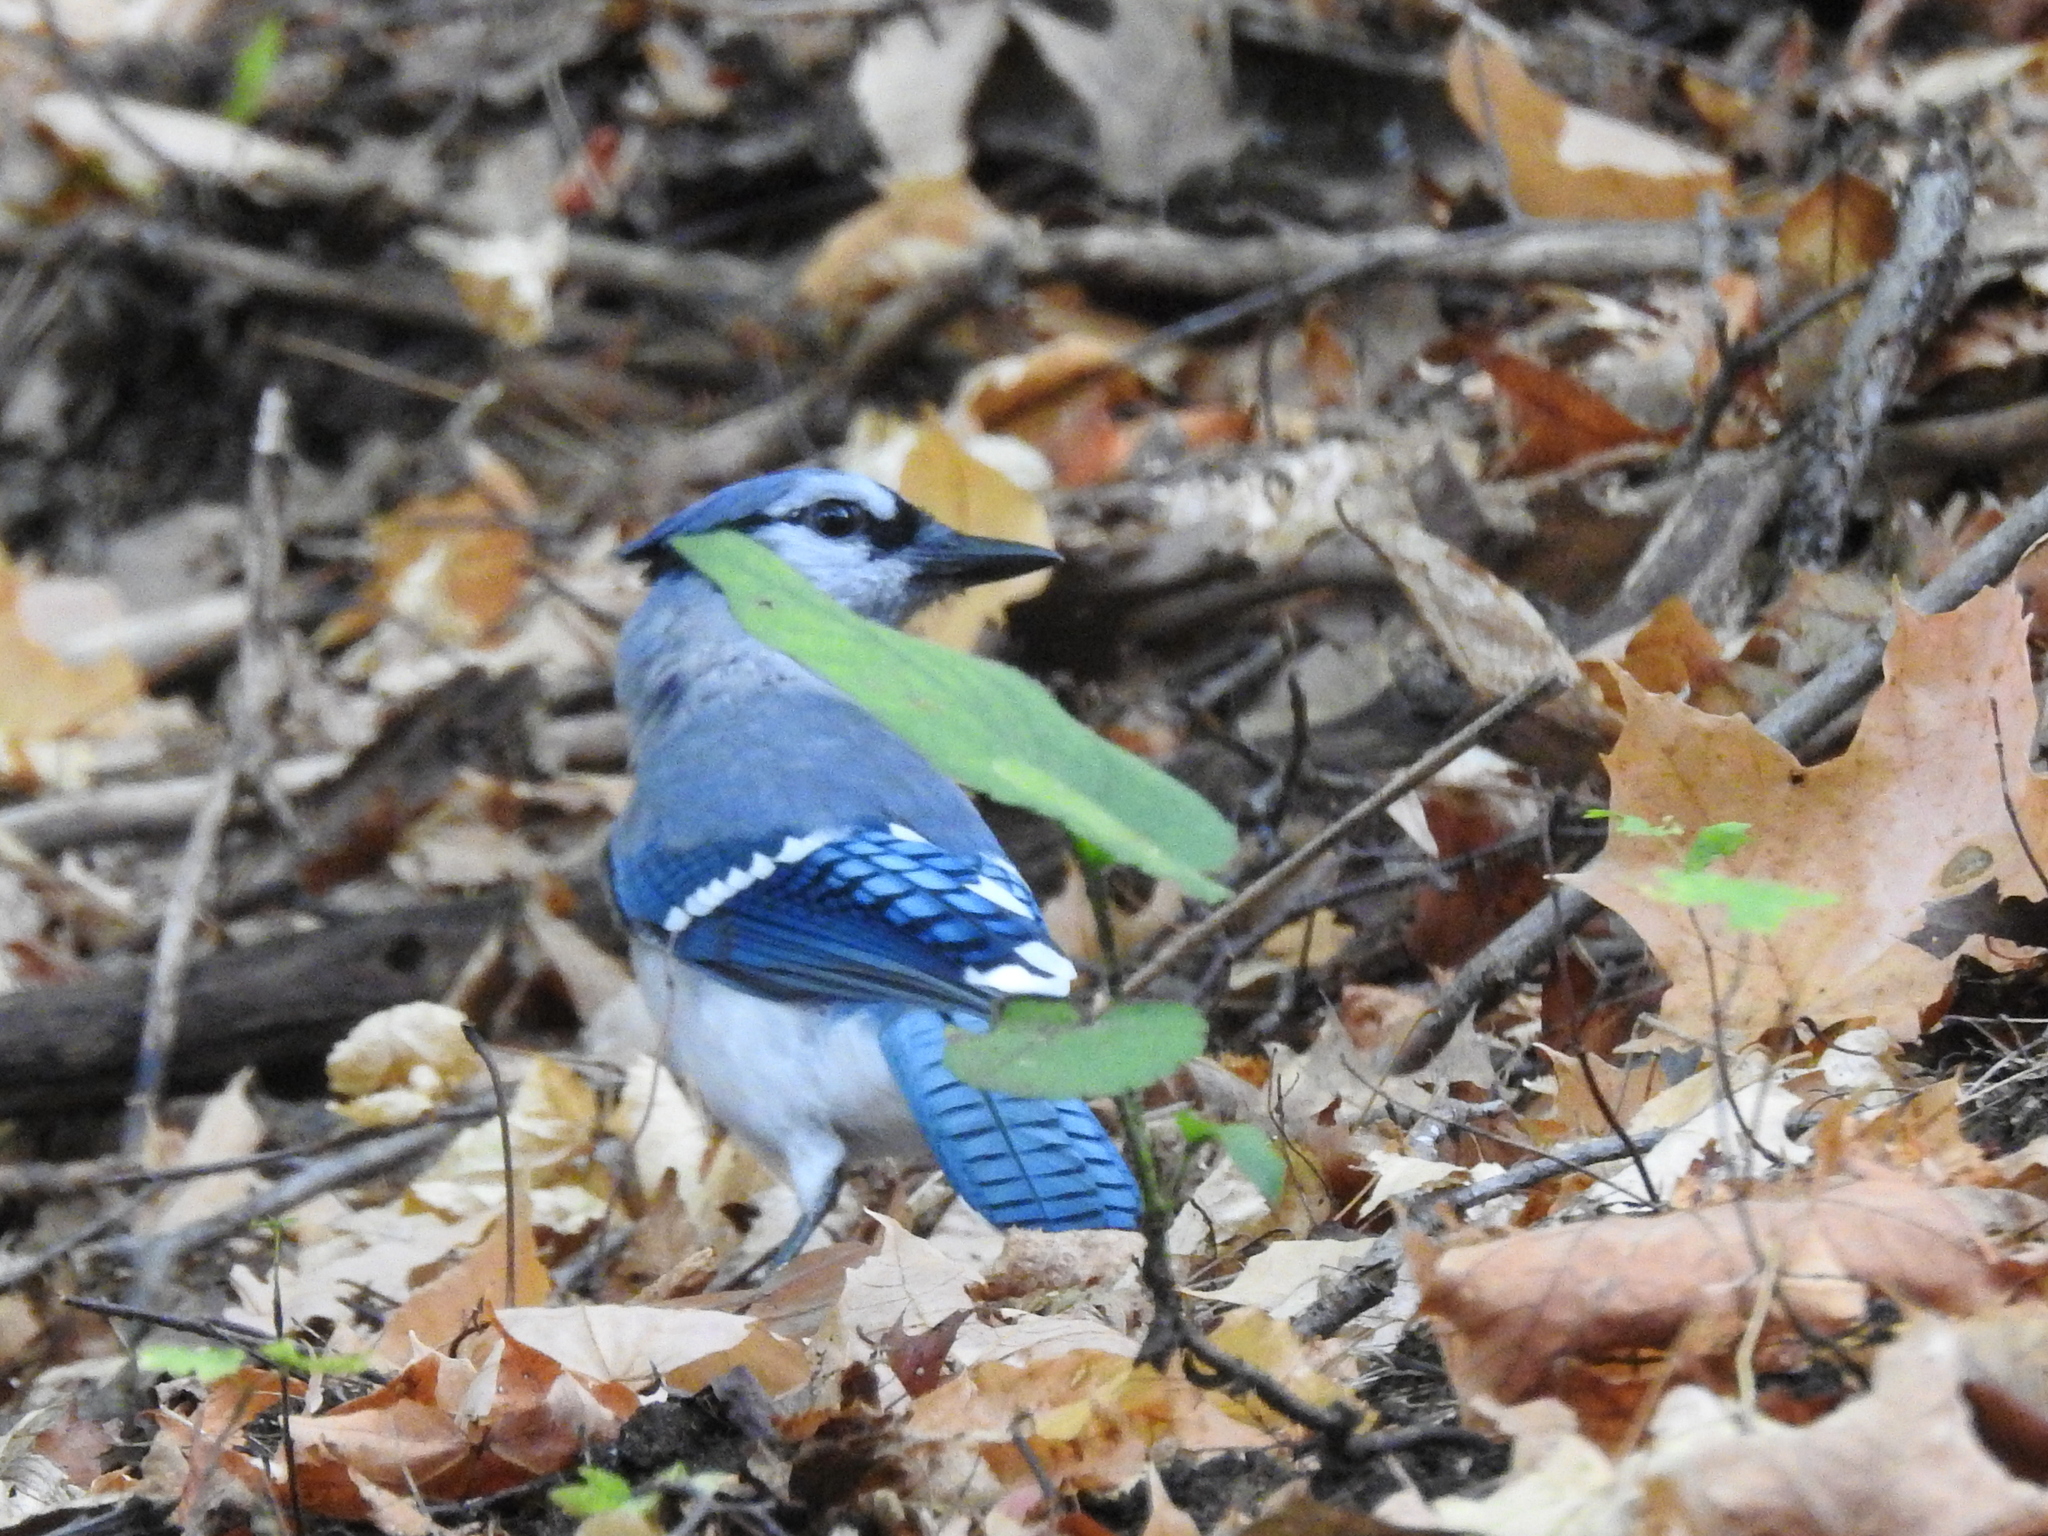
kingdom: Animalia
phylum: Chordata
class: Aves
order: Passeriformes
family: Corvidae
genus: Cyanocitta
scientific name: Cyanocitta cristata
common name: Blue jay
